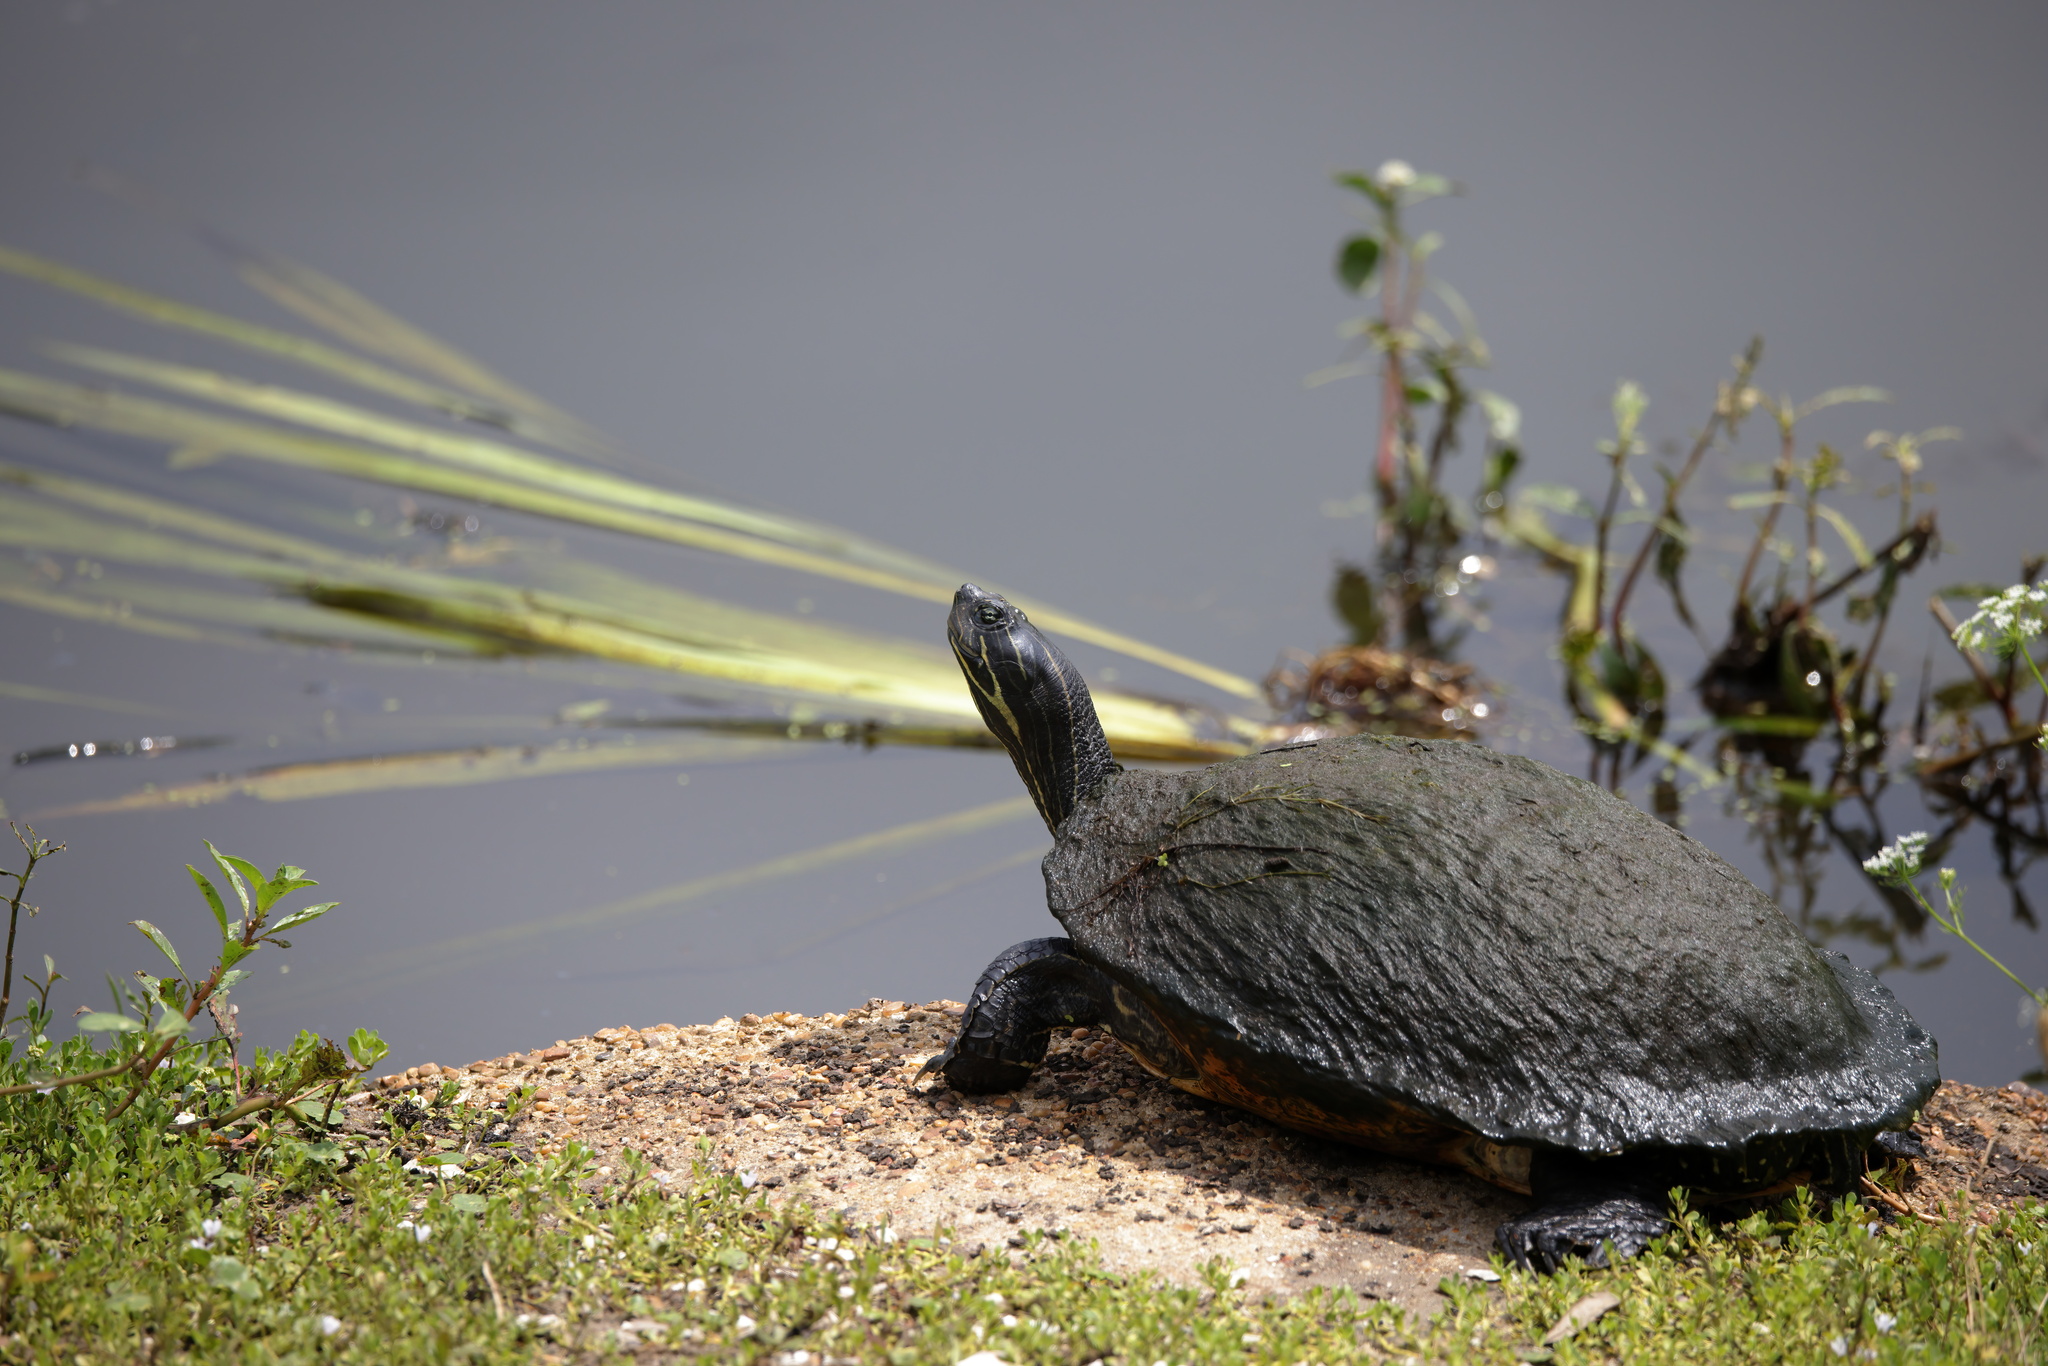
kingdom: Animalia
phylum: Chordata
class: Testudines
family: Emydidae
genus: Pseudemys
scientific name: Pseudemys concinna
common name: Eastern river cooter
